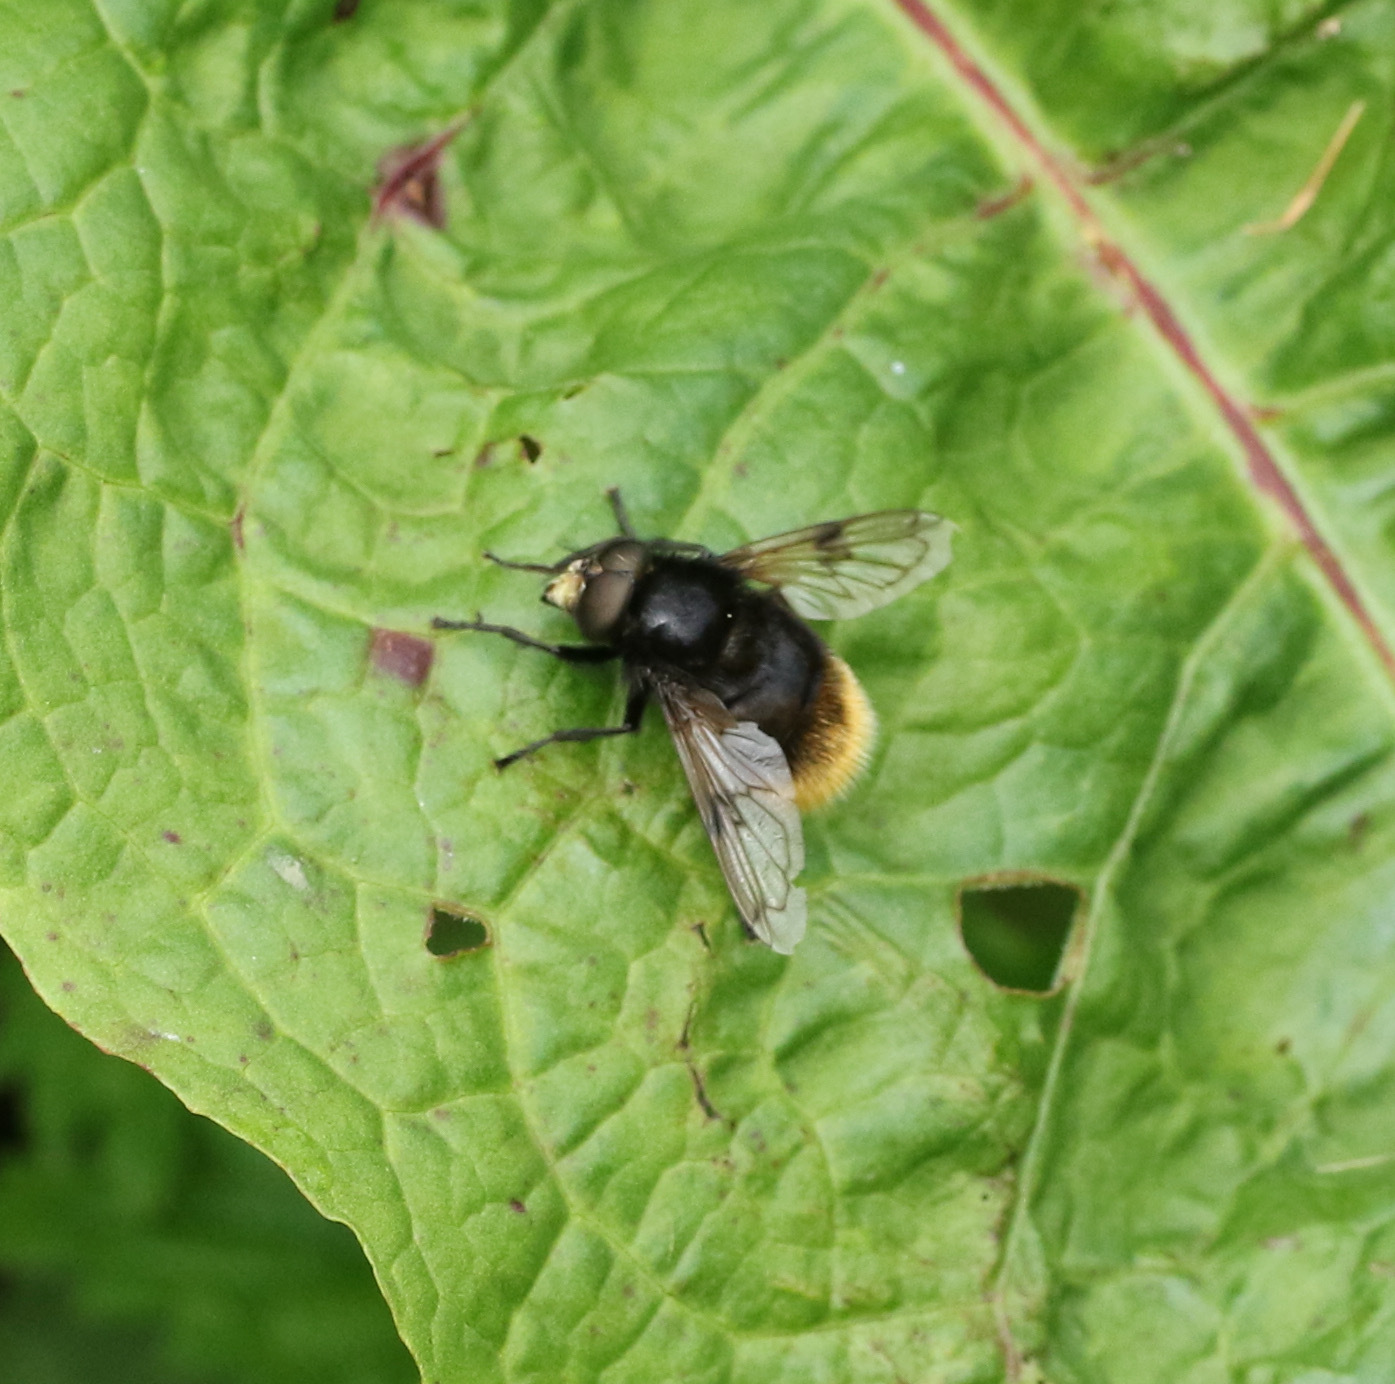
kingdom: Animalia
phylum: Arthropoda
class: Insecta
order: Diptera
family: Syrphidae
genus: Volucella
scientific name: Volucella bombylans
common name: Bumble bee hover fly
